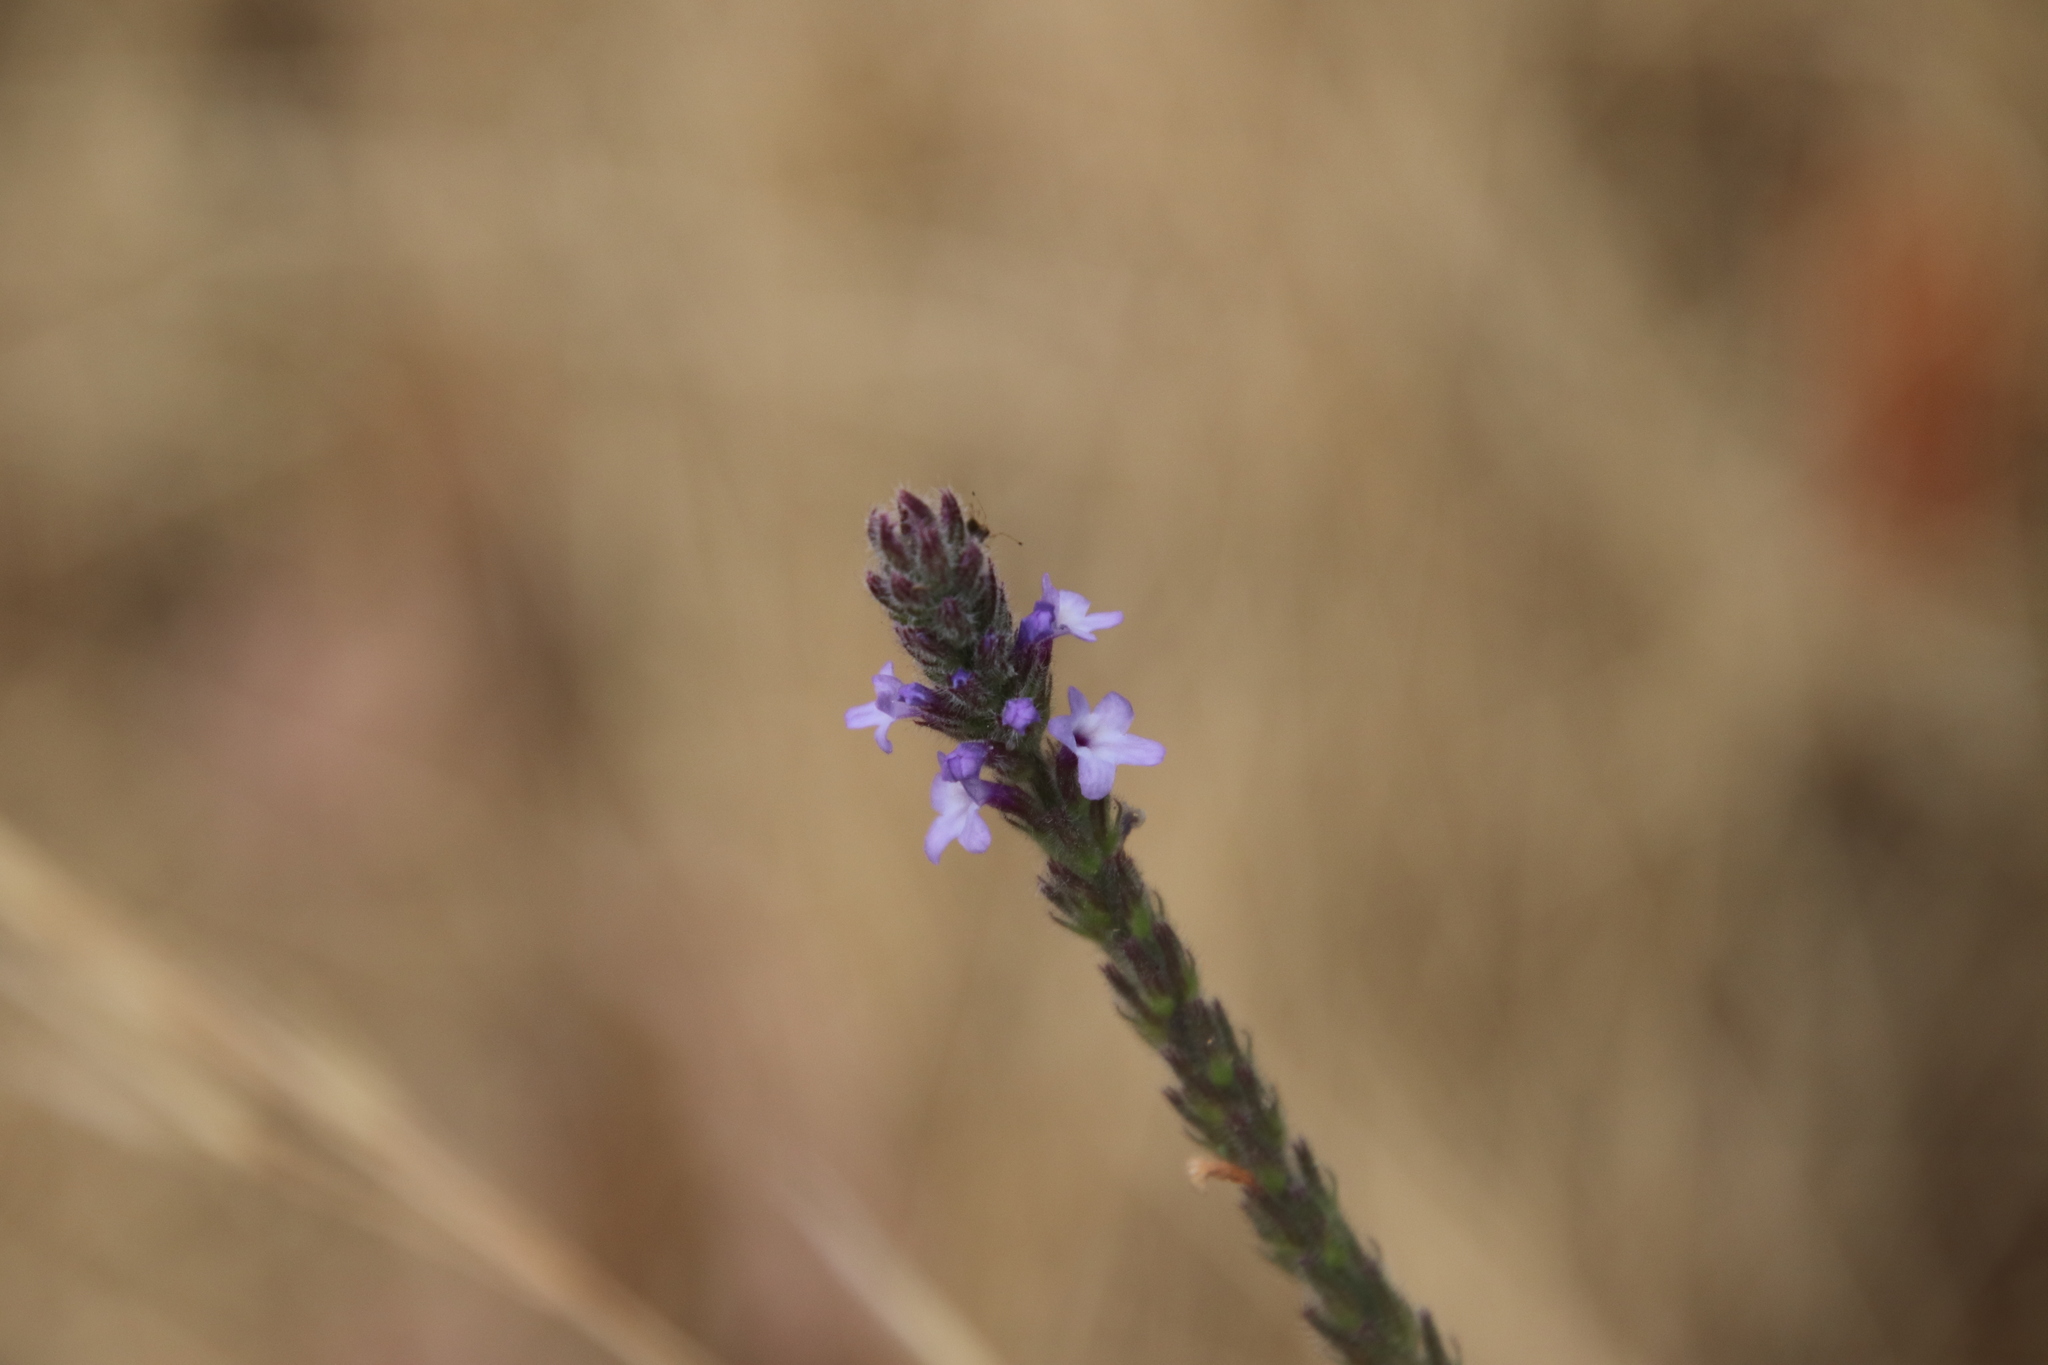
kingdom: Plantae
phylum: Tracheophyta
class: Magnoliopsida
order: Lamiales
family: Verbenaceae
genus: Verbena
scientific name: Verbena lasiostachys
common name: Vervain
